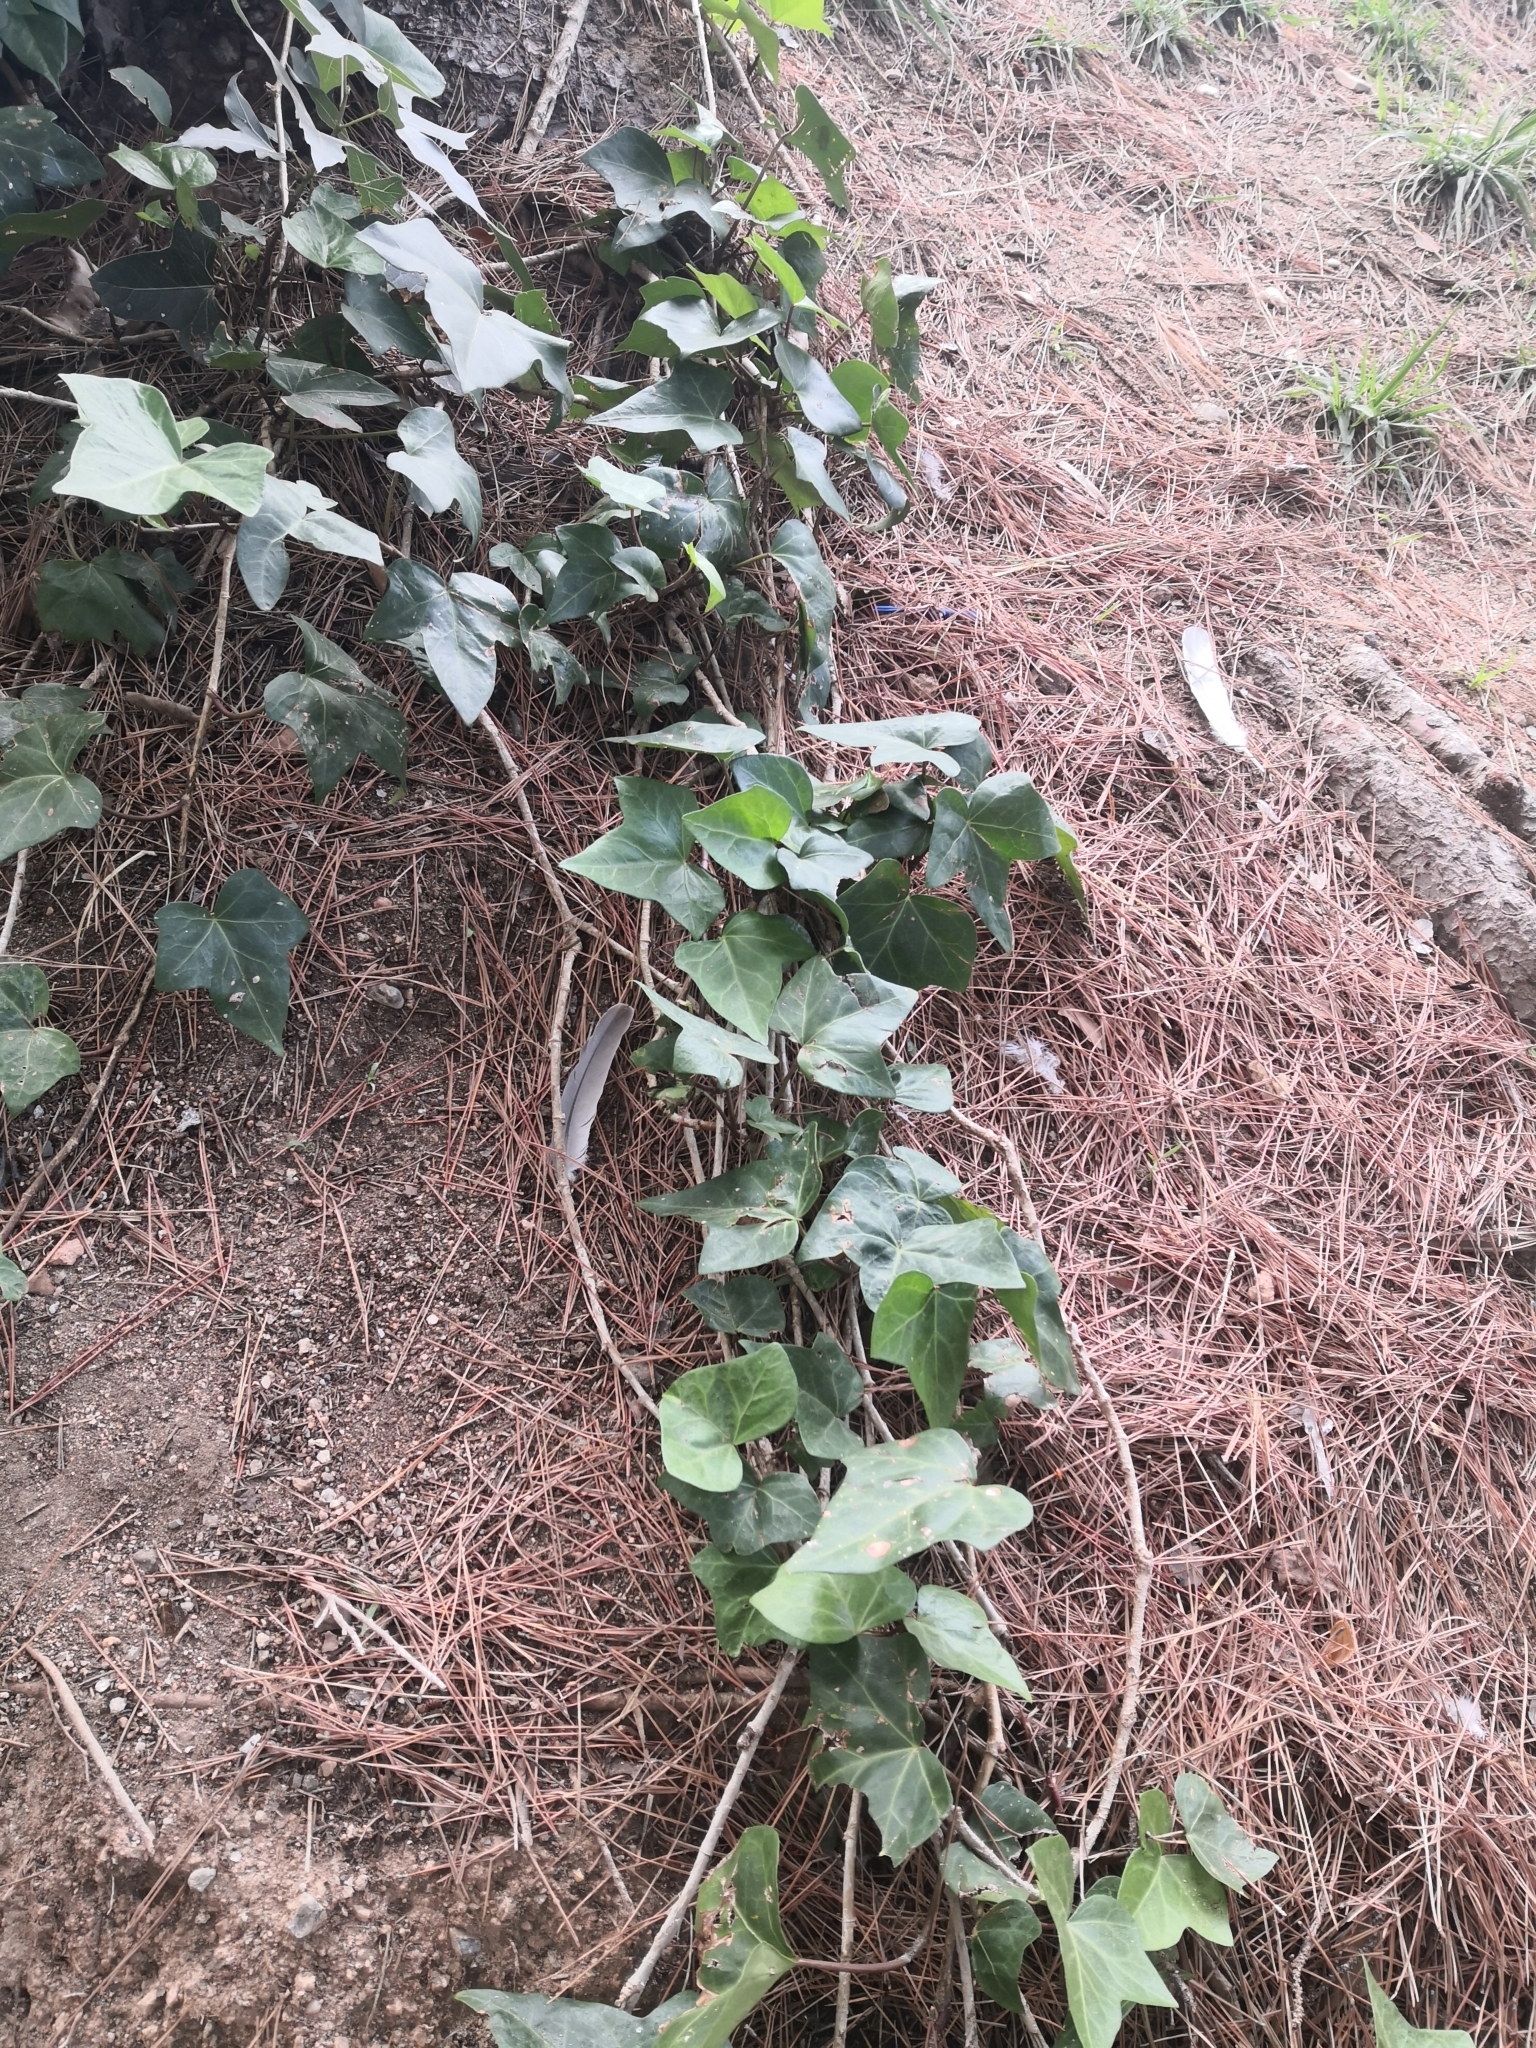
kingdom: Plantae
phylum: Tracheophyta
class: Magnoliopsida
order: Apiales
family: Araliaceae
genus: Hedera
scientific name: Hedera helix
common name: Ivy
